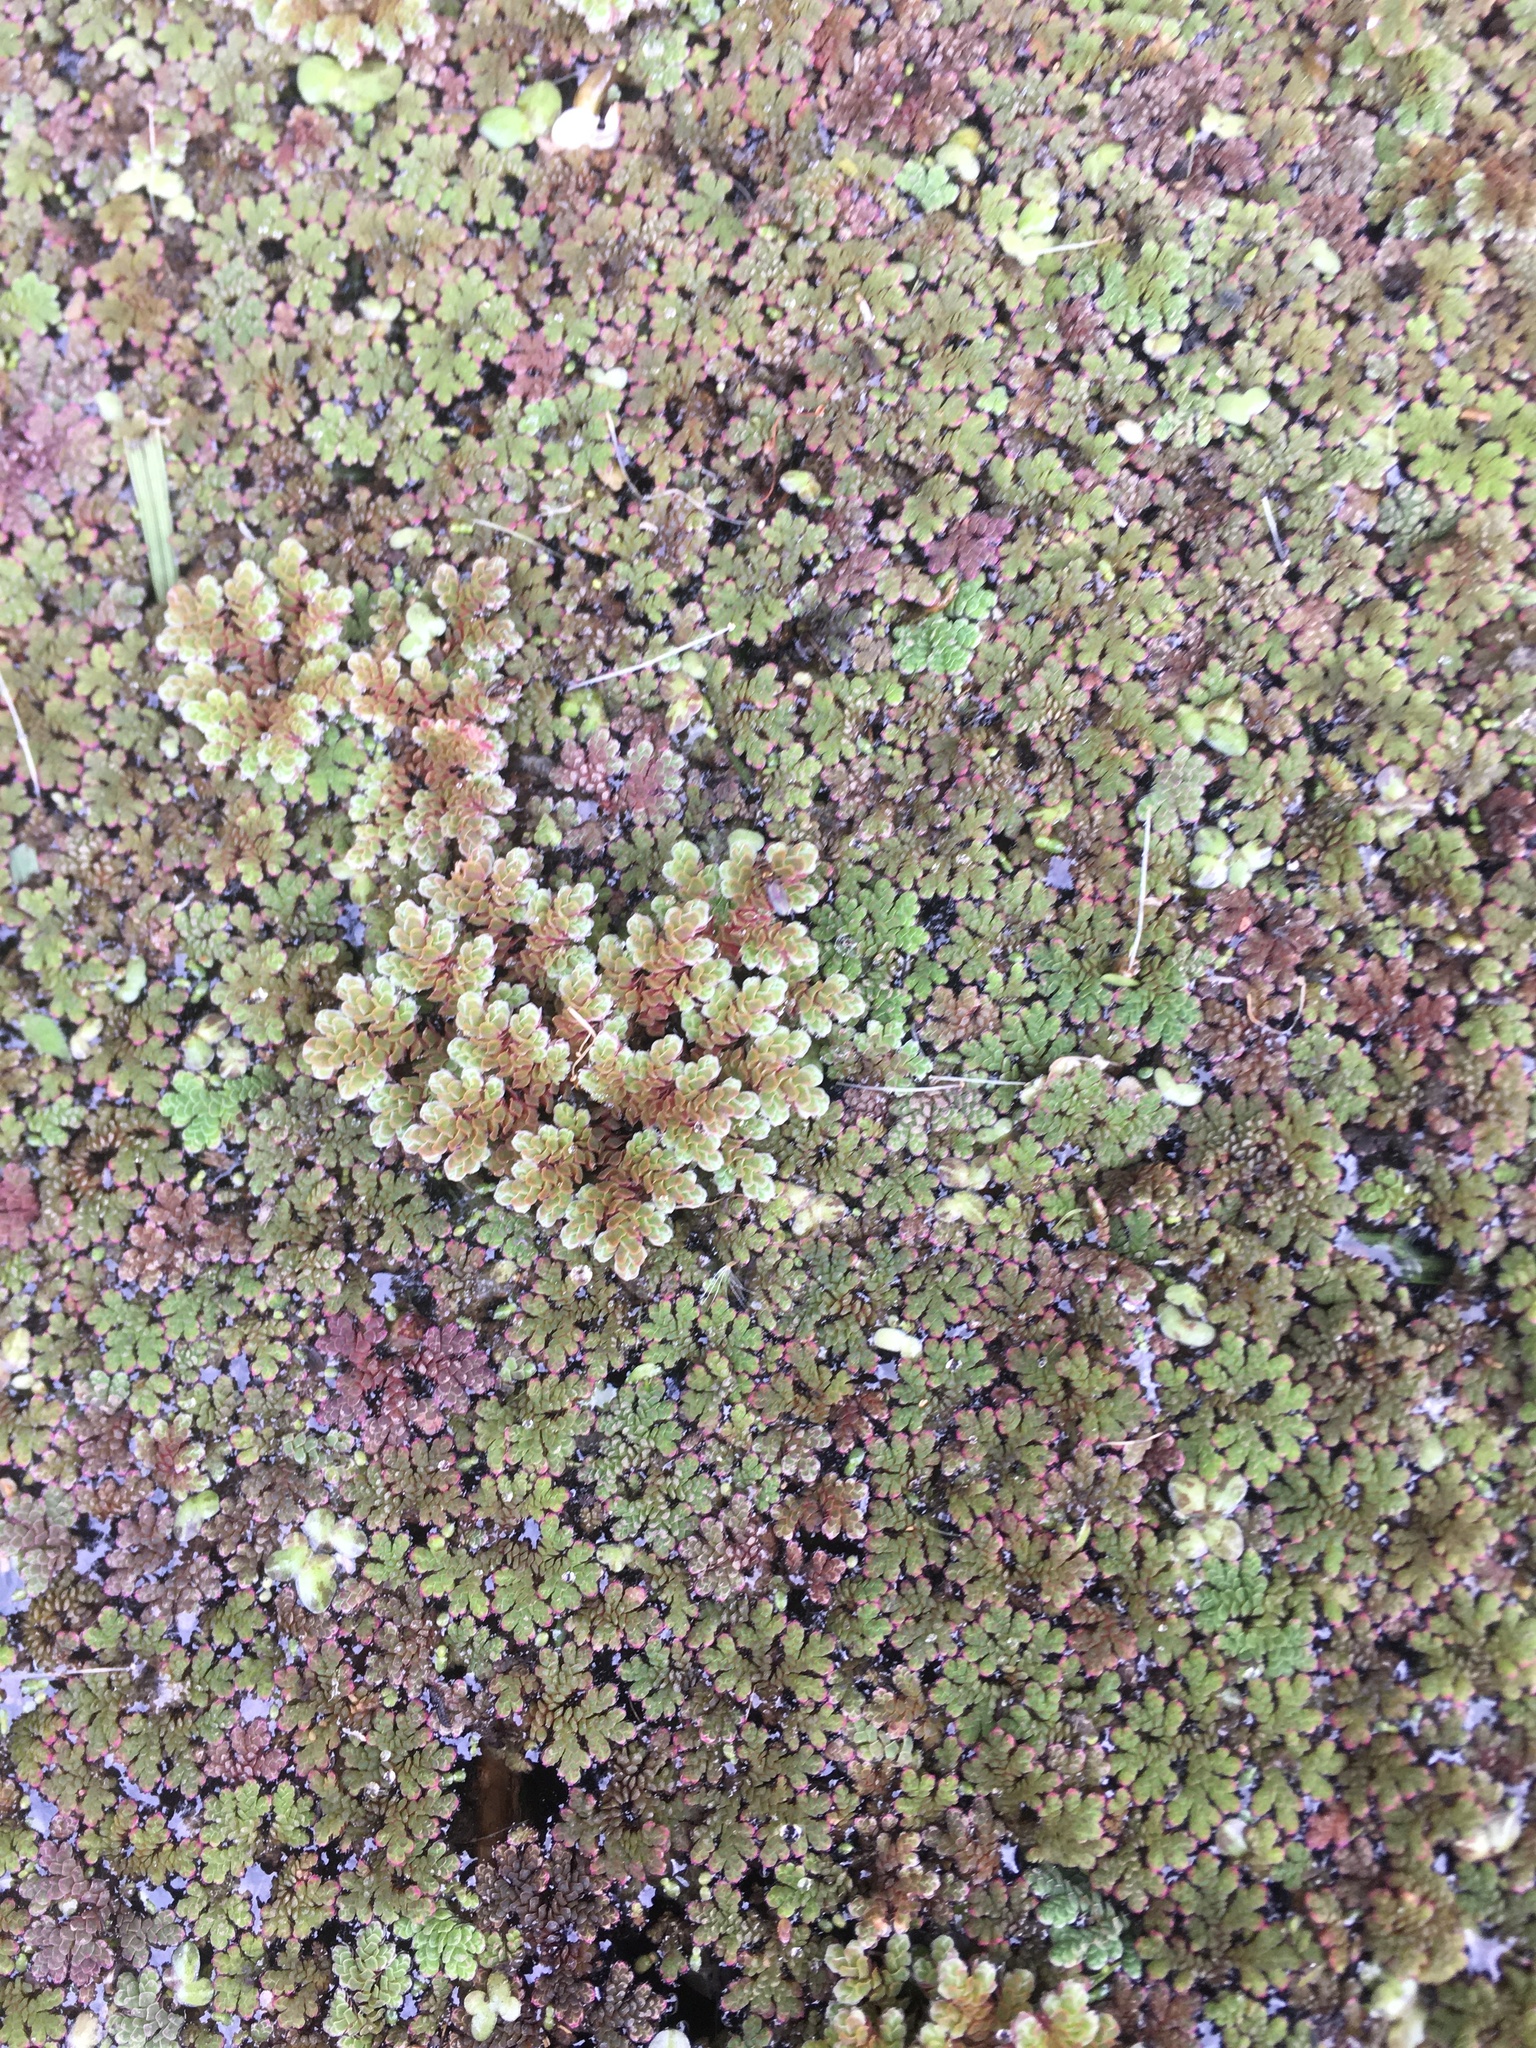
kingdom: Plantae
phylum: Tracheophyta
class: Polypodiopsida
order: Salviniales
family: Salviniaceae
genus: Azolla
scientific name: Azolla filiculoides
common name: Water fern
